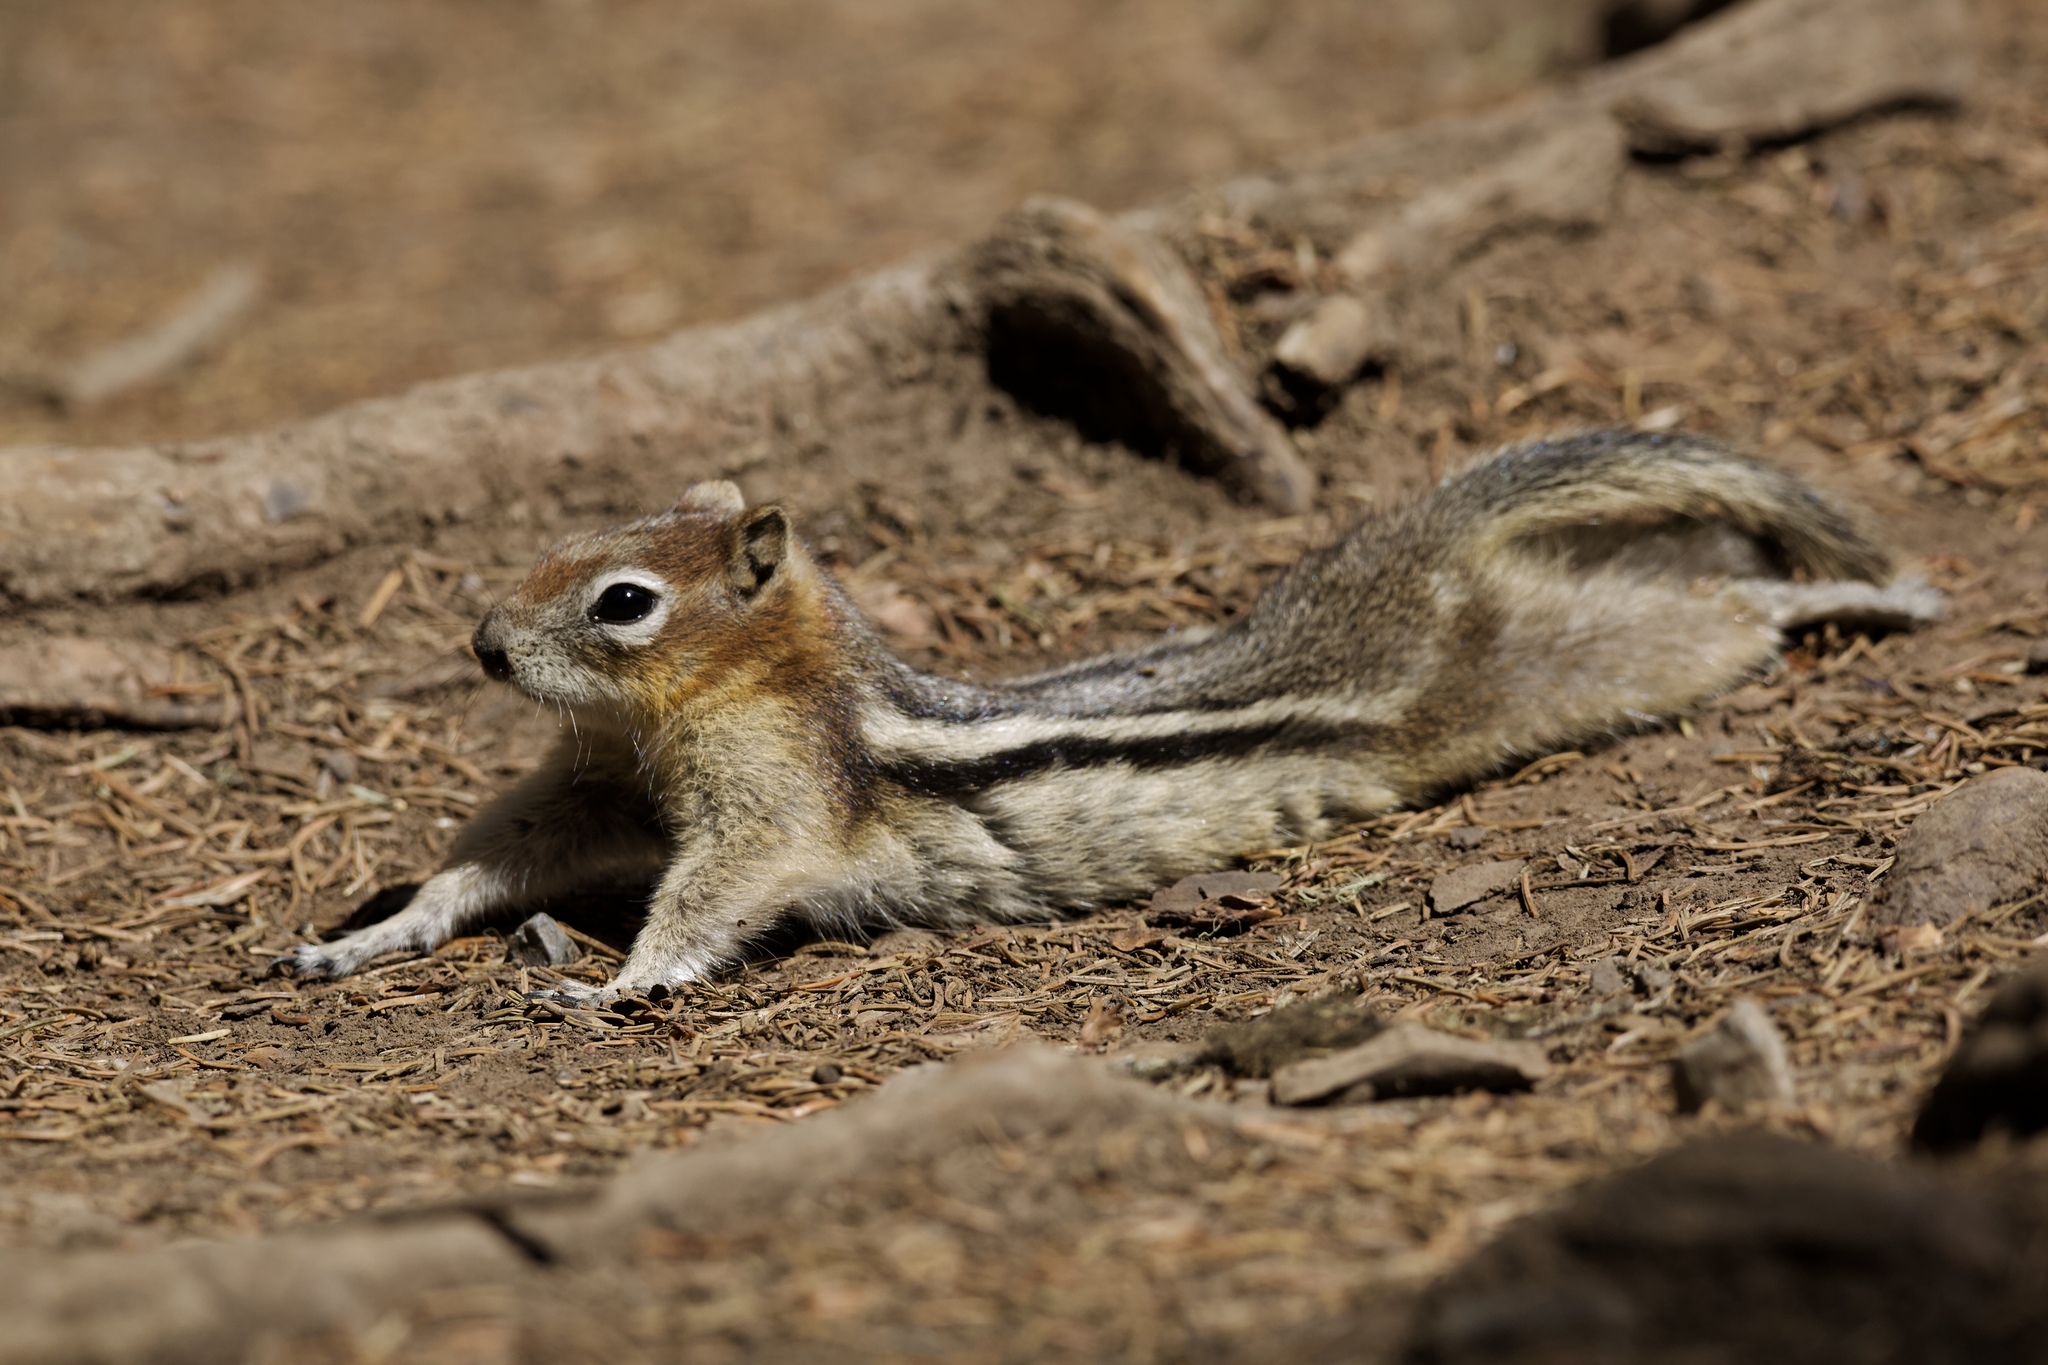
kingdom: Animalia
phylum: Chordata
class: Mammalia
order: Rodentia
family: Sciuridae
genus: Callospermophilus
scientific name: Callospermophilus lateralis
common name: Golden-mantled ground squirrel
